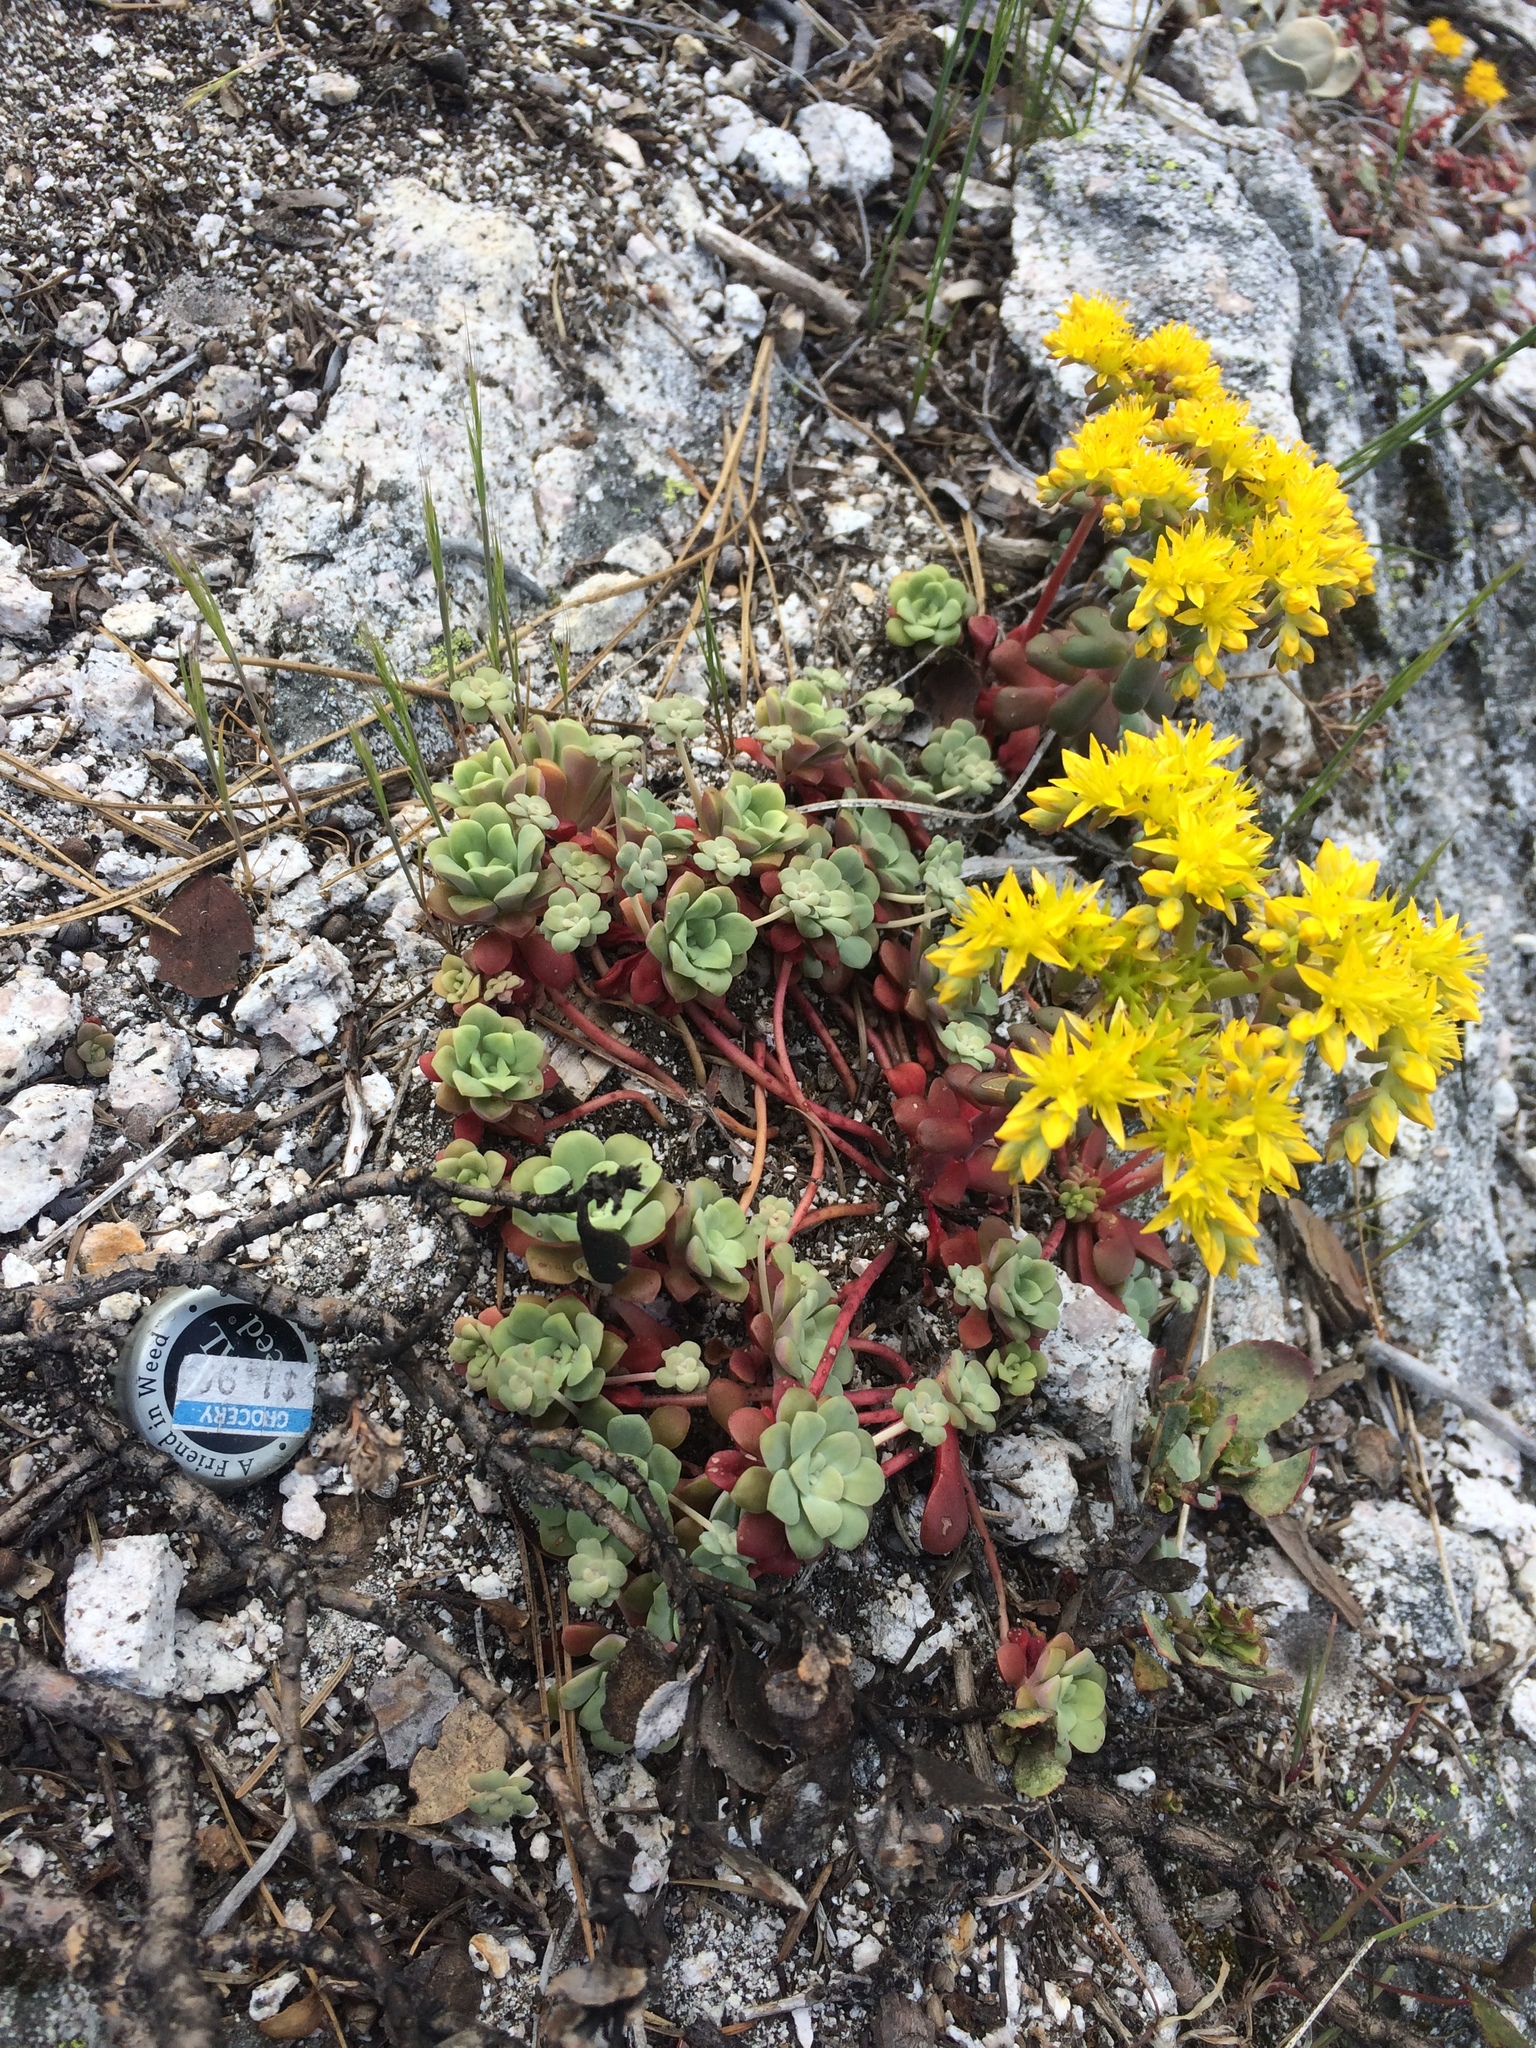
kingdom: Plantae
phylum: Tracheophyta
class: Magnoliopsida
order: Saxifragales
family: Crassulaceae
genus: Sedum
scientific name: Sedum spathulifolium
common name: Colorado stonecrop
